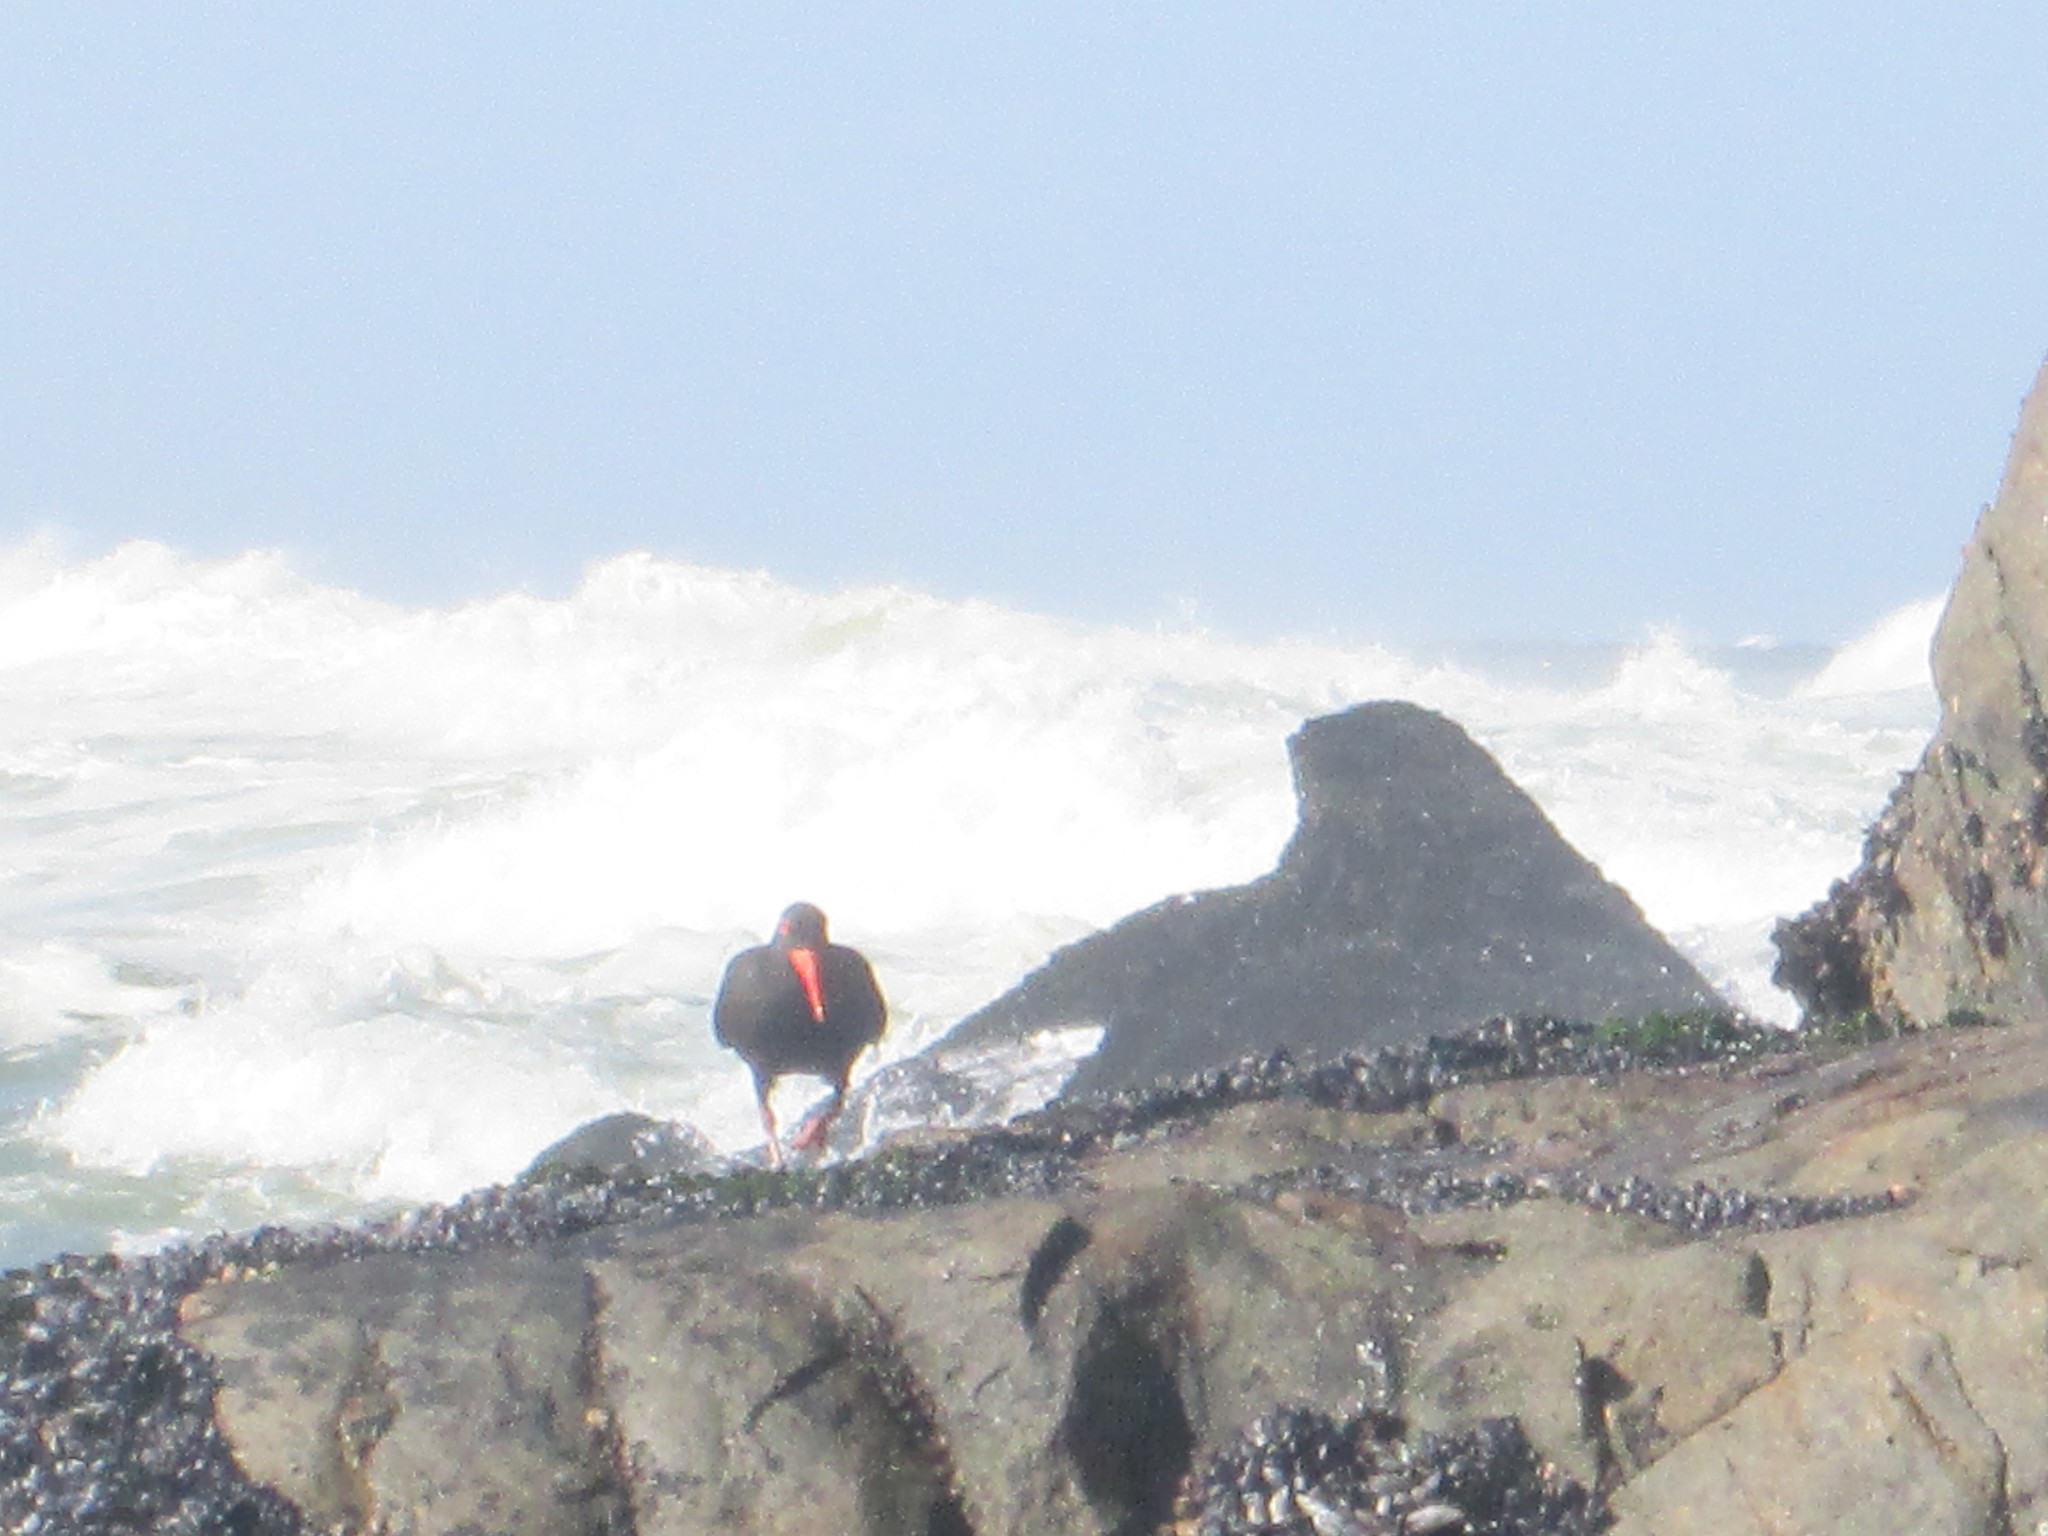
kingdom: Animalia
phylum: Chordata
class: Aves
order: Charadriiformes
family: Haematopodidae
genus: Haematopus
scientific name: Haematopus moquini
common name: African oystercatcher
